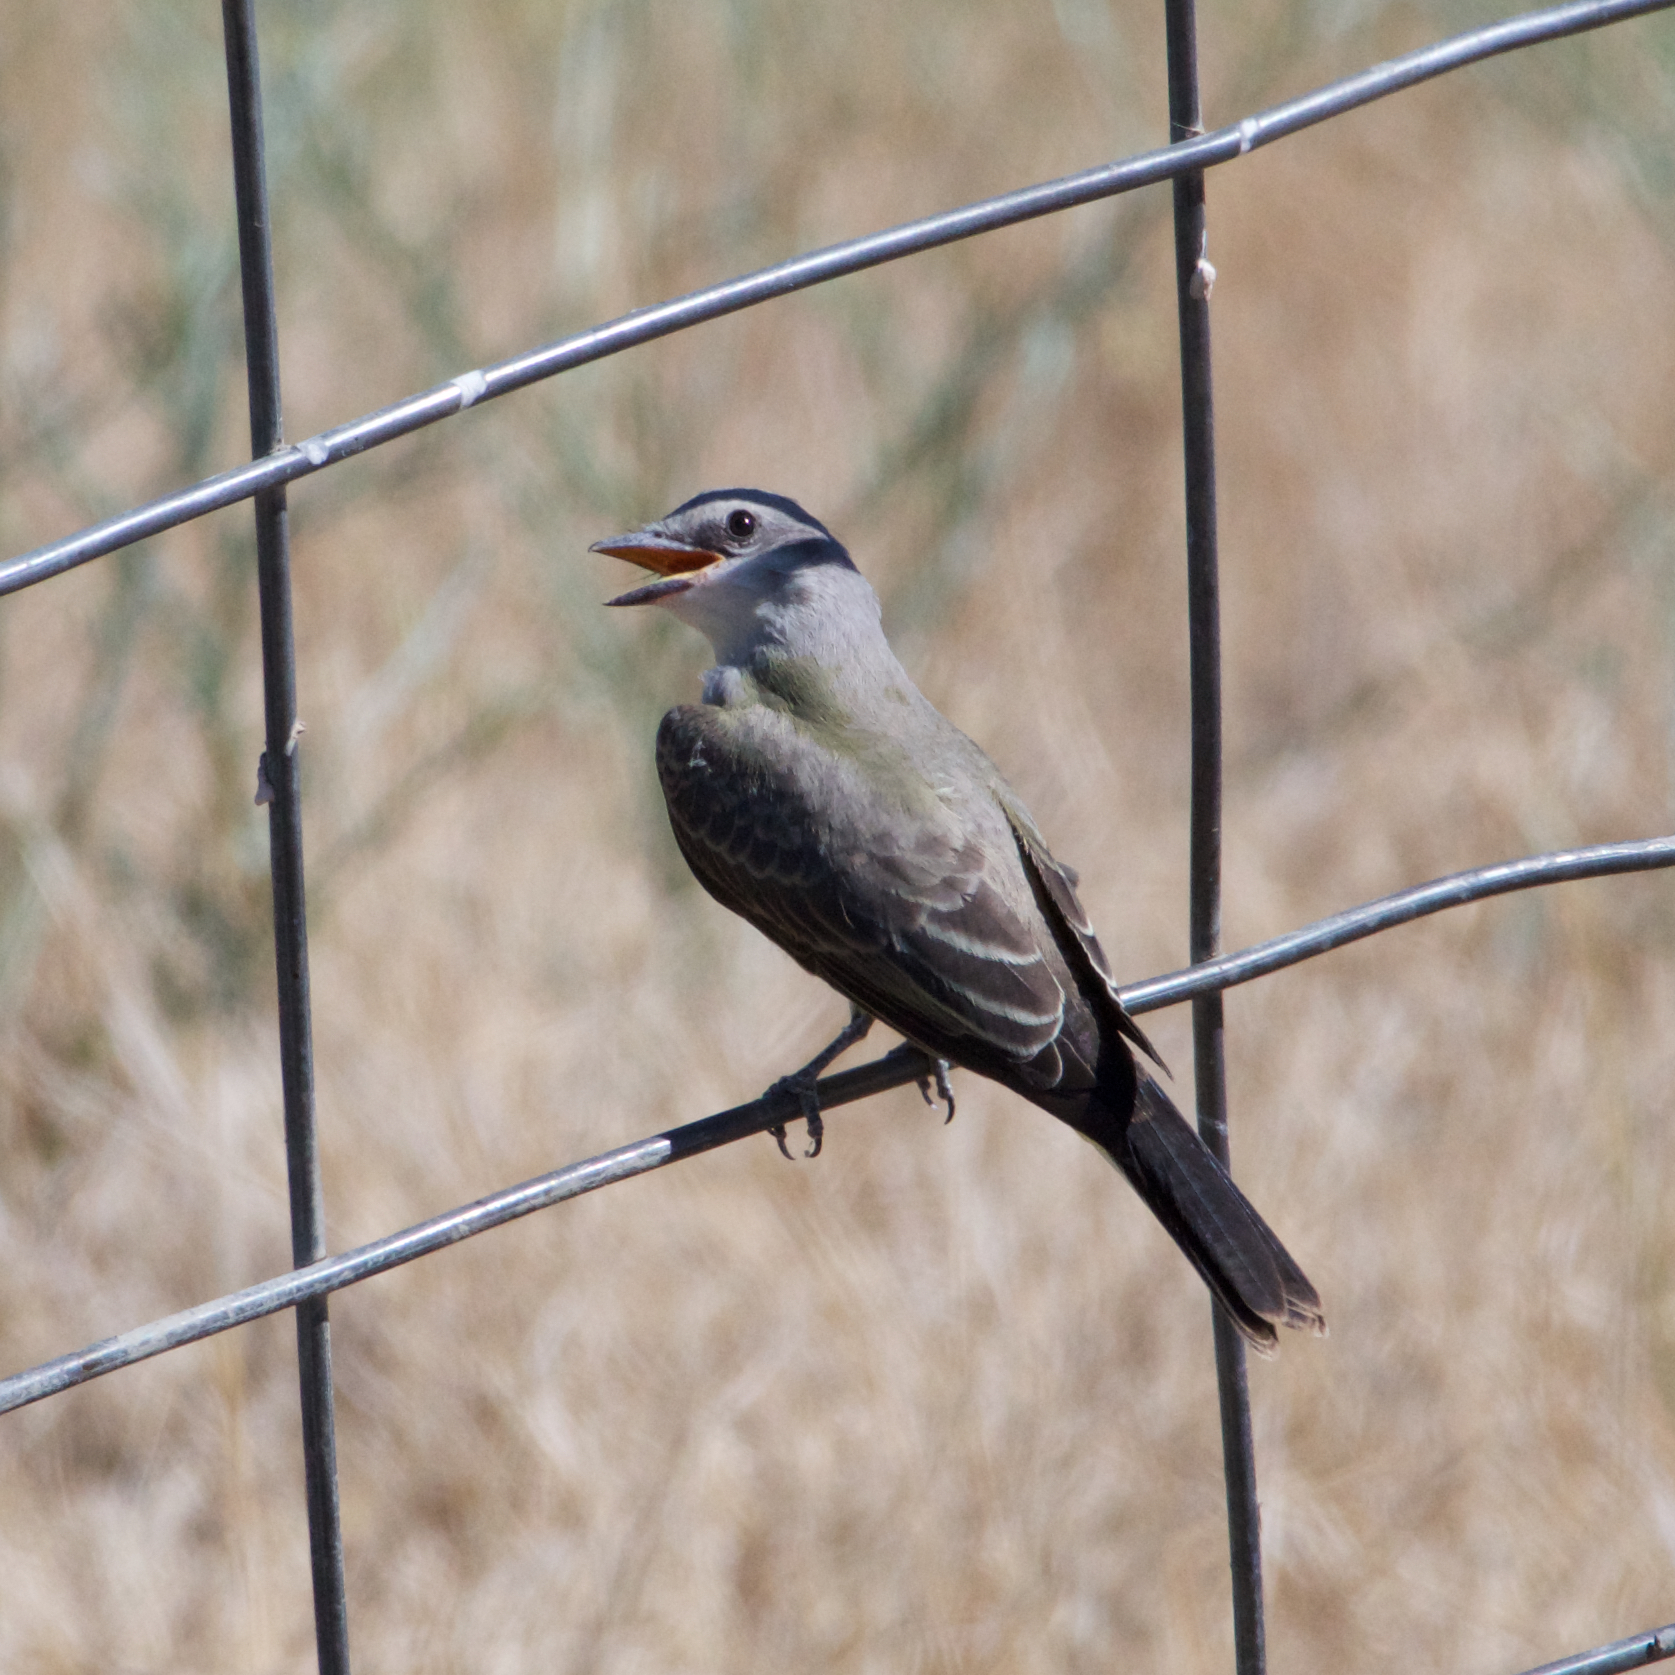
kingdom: Animalia
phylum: Chordata
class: Aves
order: Passeriformes
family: Tyrannidae
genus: Tyrannus
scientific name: Tyrannus verticalis
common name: Western kingbird
